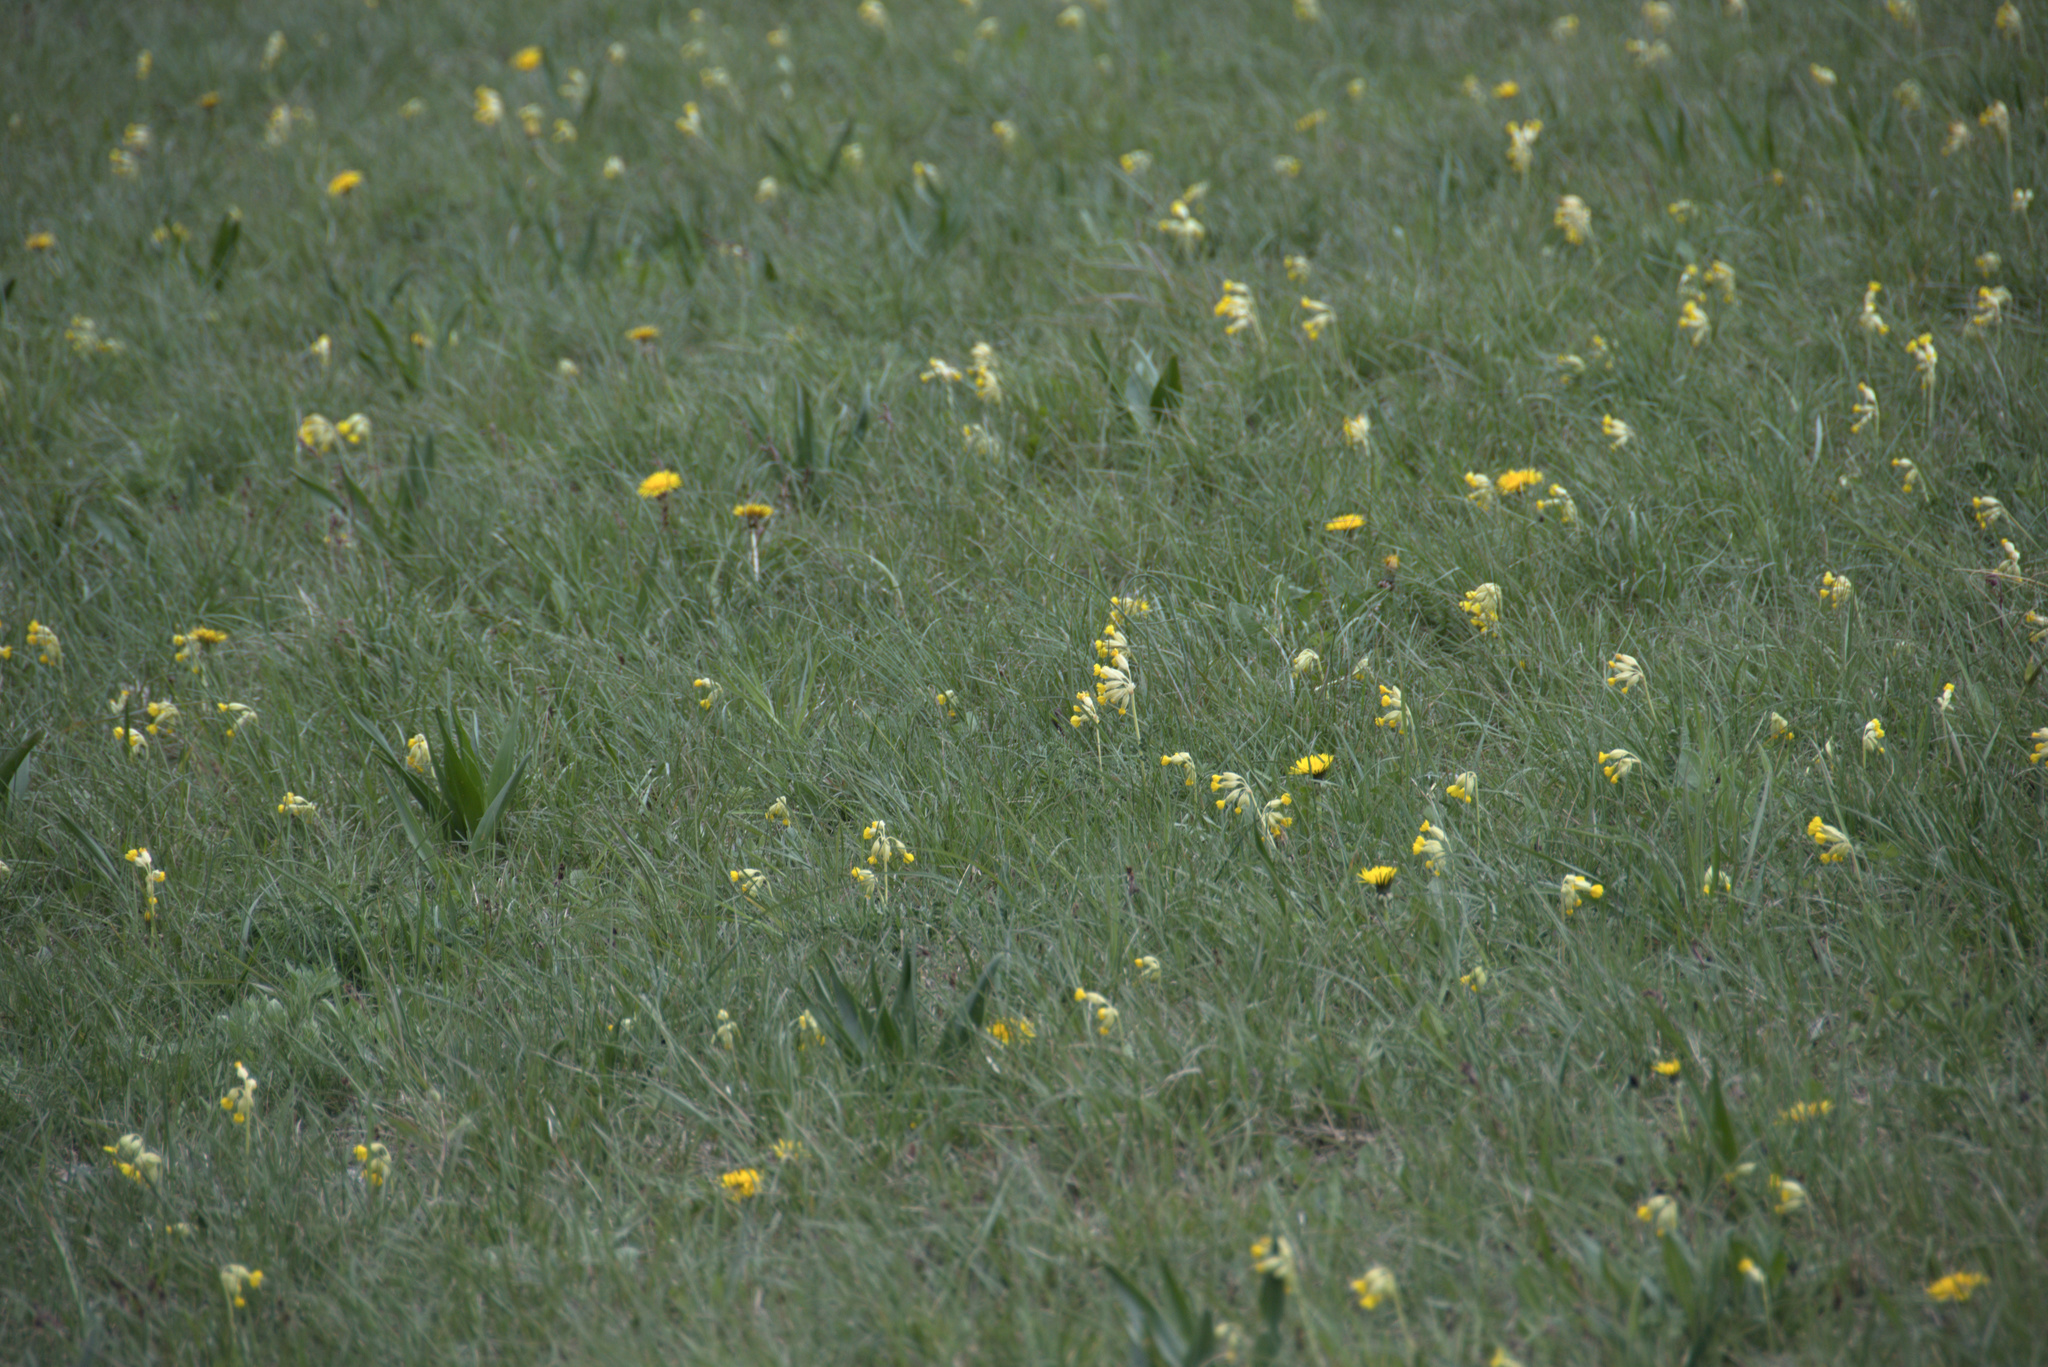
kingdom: Plantae
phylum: Tracheophyta
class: Magnoliopsida
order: Ericales
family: Primulaceae
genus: Primula
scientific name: Primula veris
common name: Cowslip
